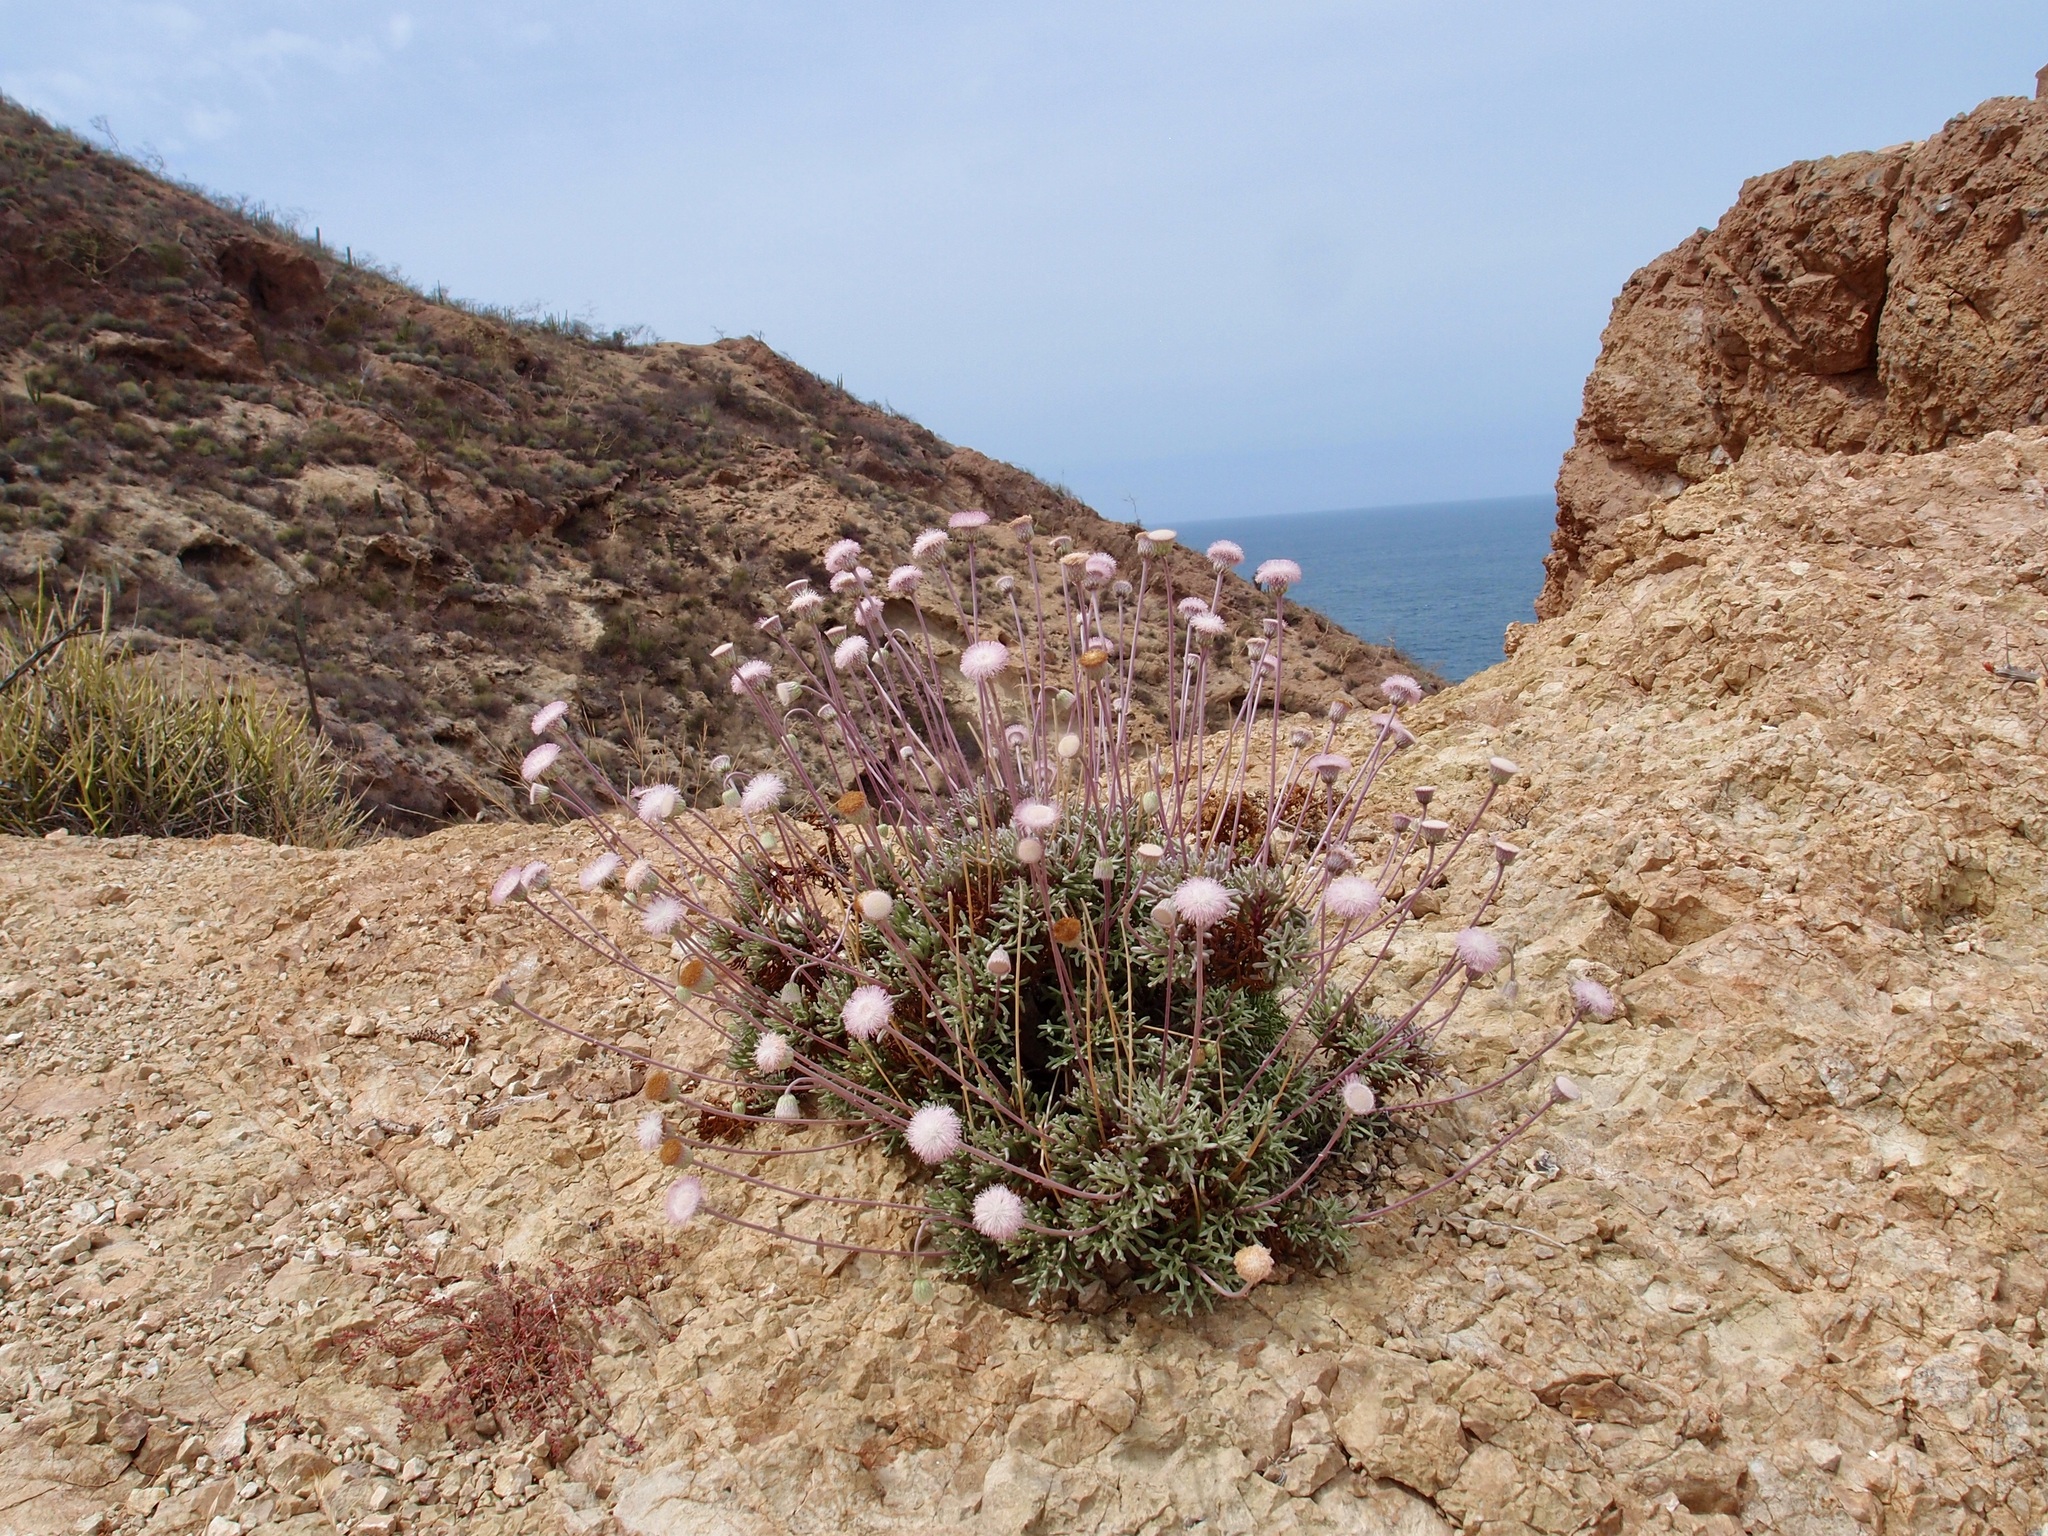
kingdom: Plantae
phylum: Tracheophyta
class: Magnoliopsida
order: Asterales
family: Asteraceae
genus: Hofmeisteria
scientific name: Hofmeisteria crassifolia
